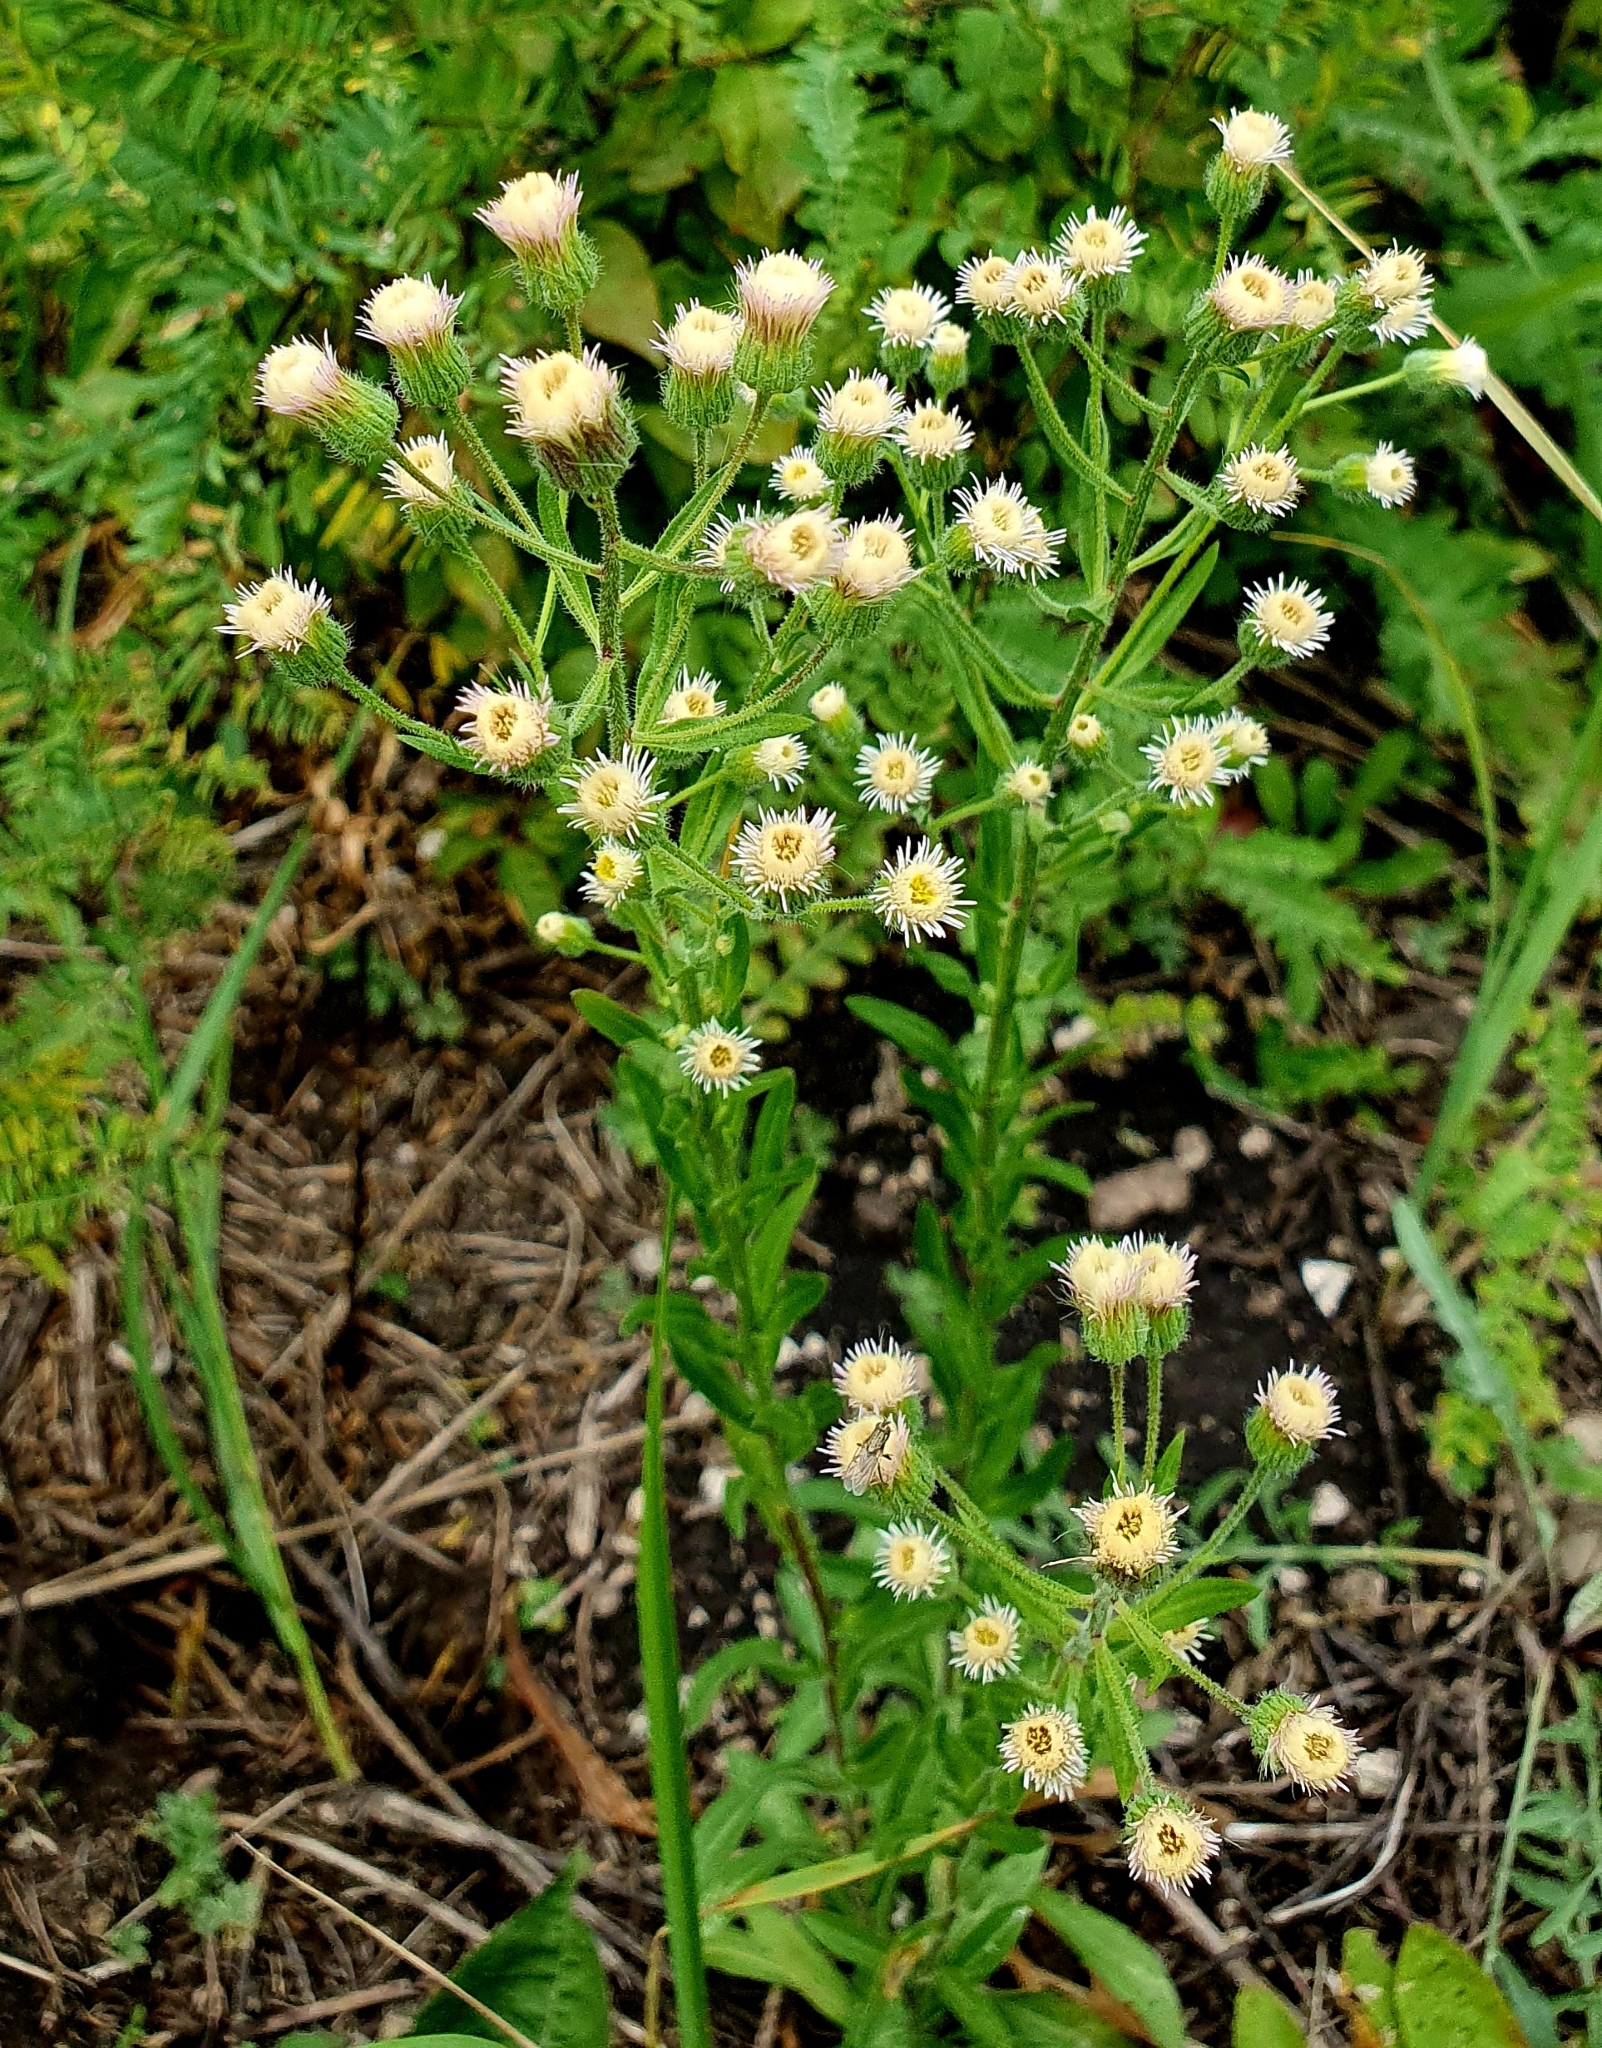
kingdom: Plantae
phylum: Tracheophyta
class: Magnoliopsida
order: Asterales
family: Asteraceae
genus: Erigeron
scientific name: Erigeron acris
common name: Blue fleabane
